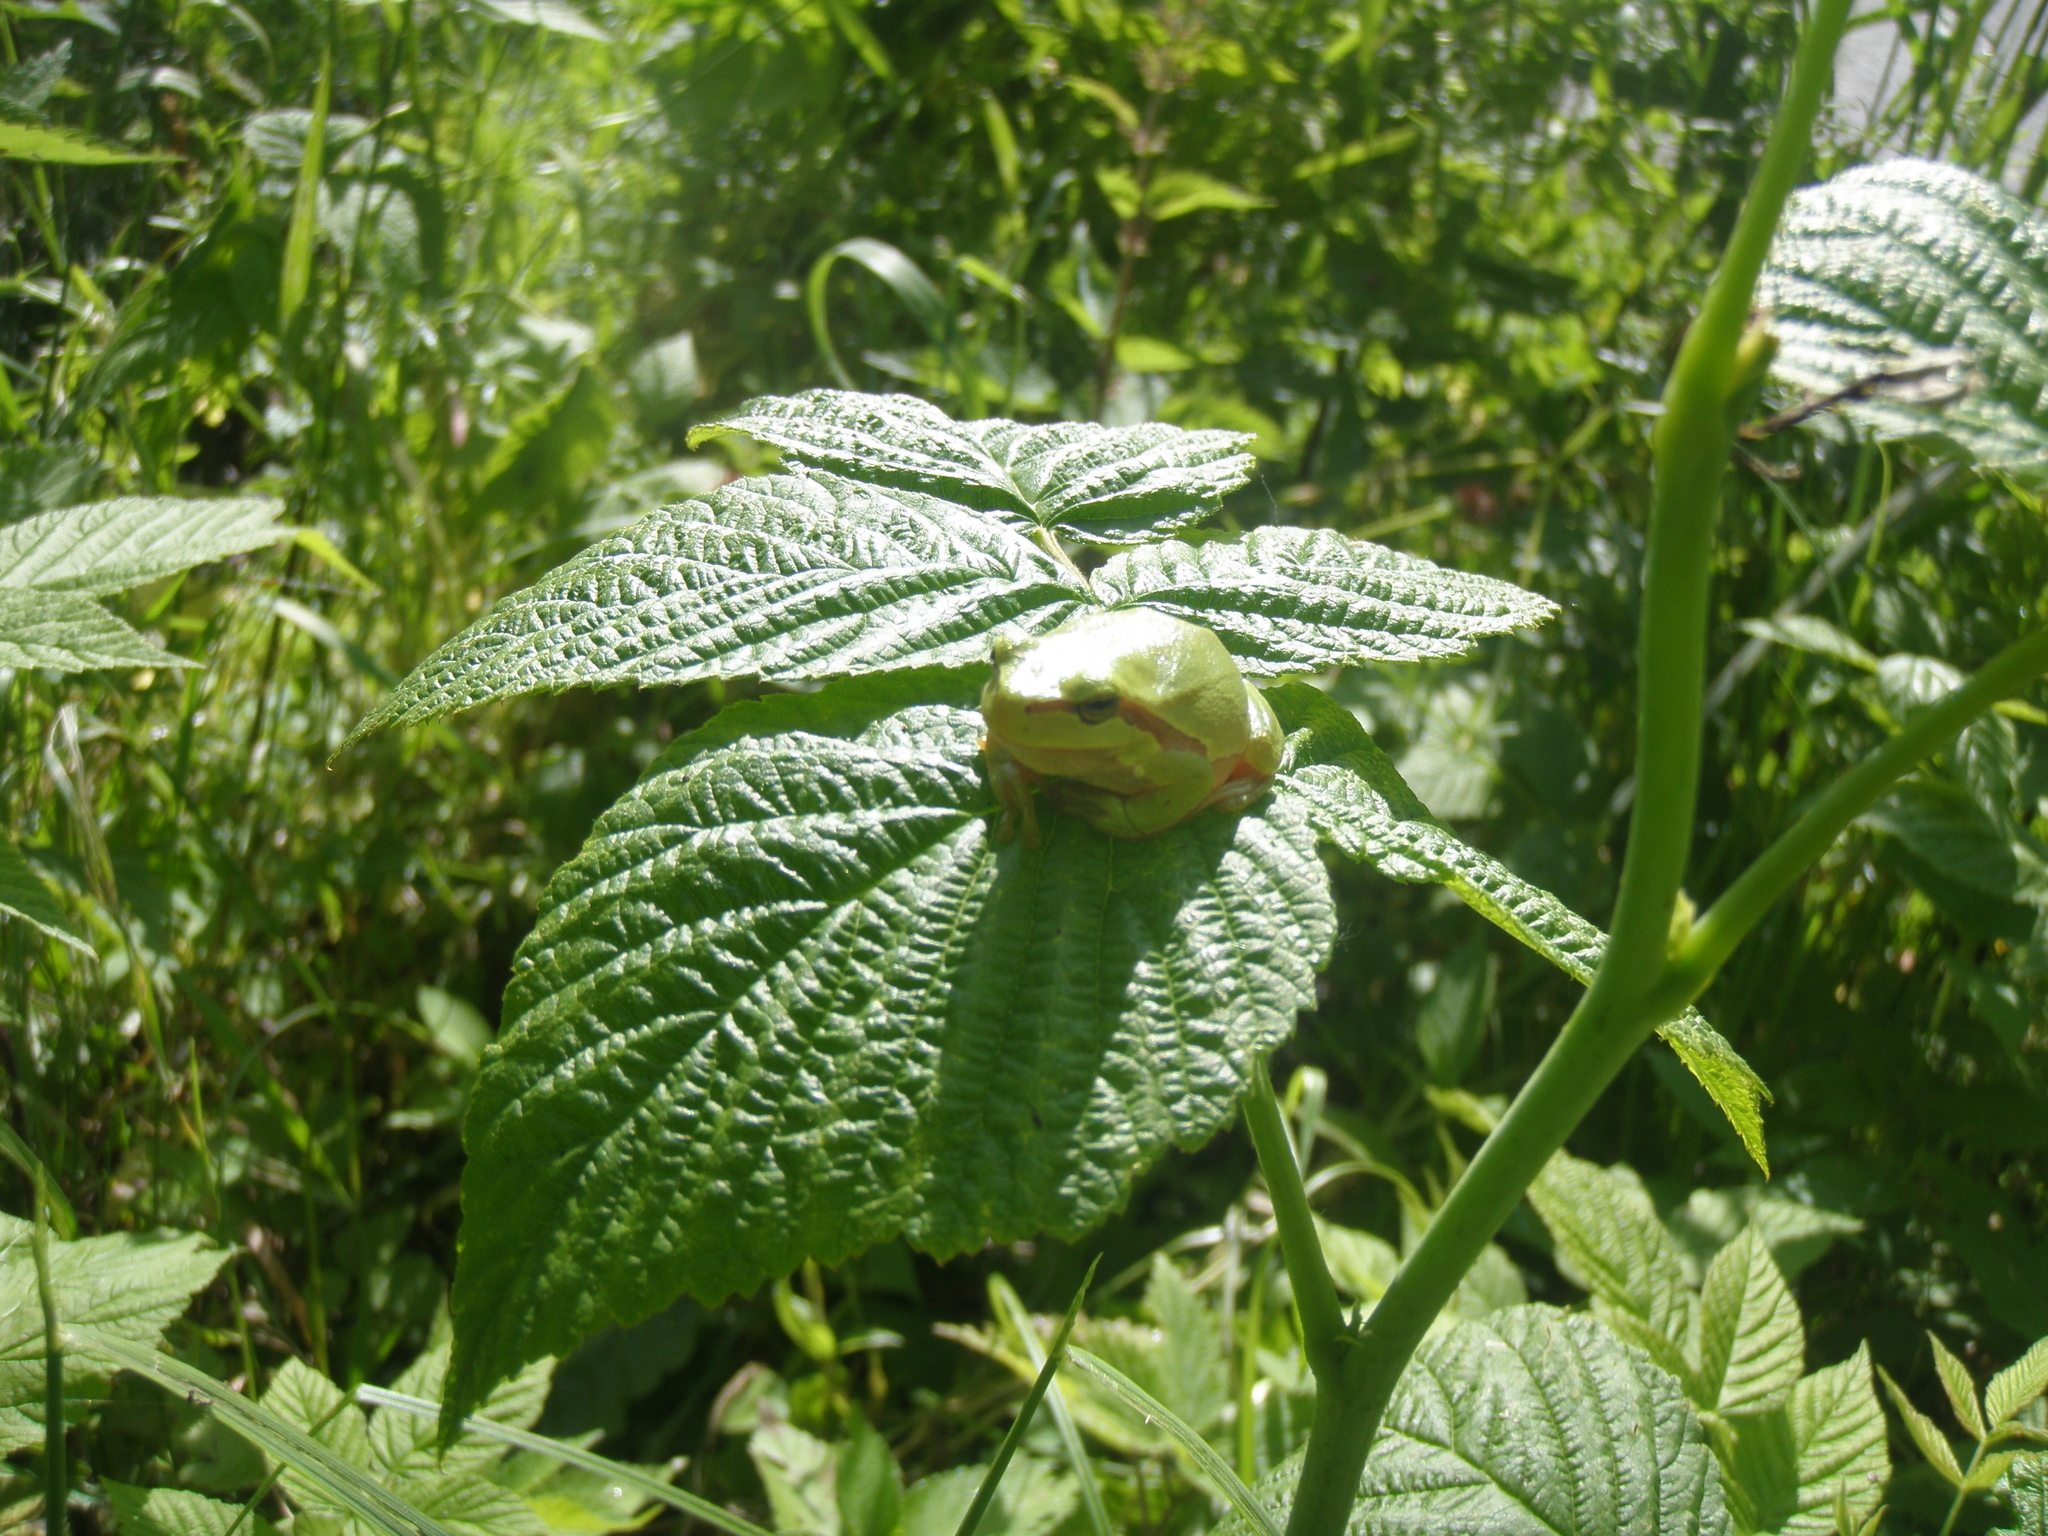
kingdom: Animalia
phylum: Chordata
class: Amphibia
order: Anura
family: Hylidae
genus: Hyla
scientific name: Hyla orientalis
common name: Caucasian treefrog
